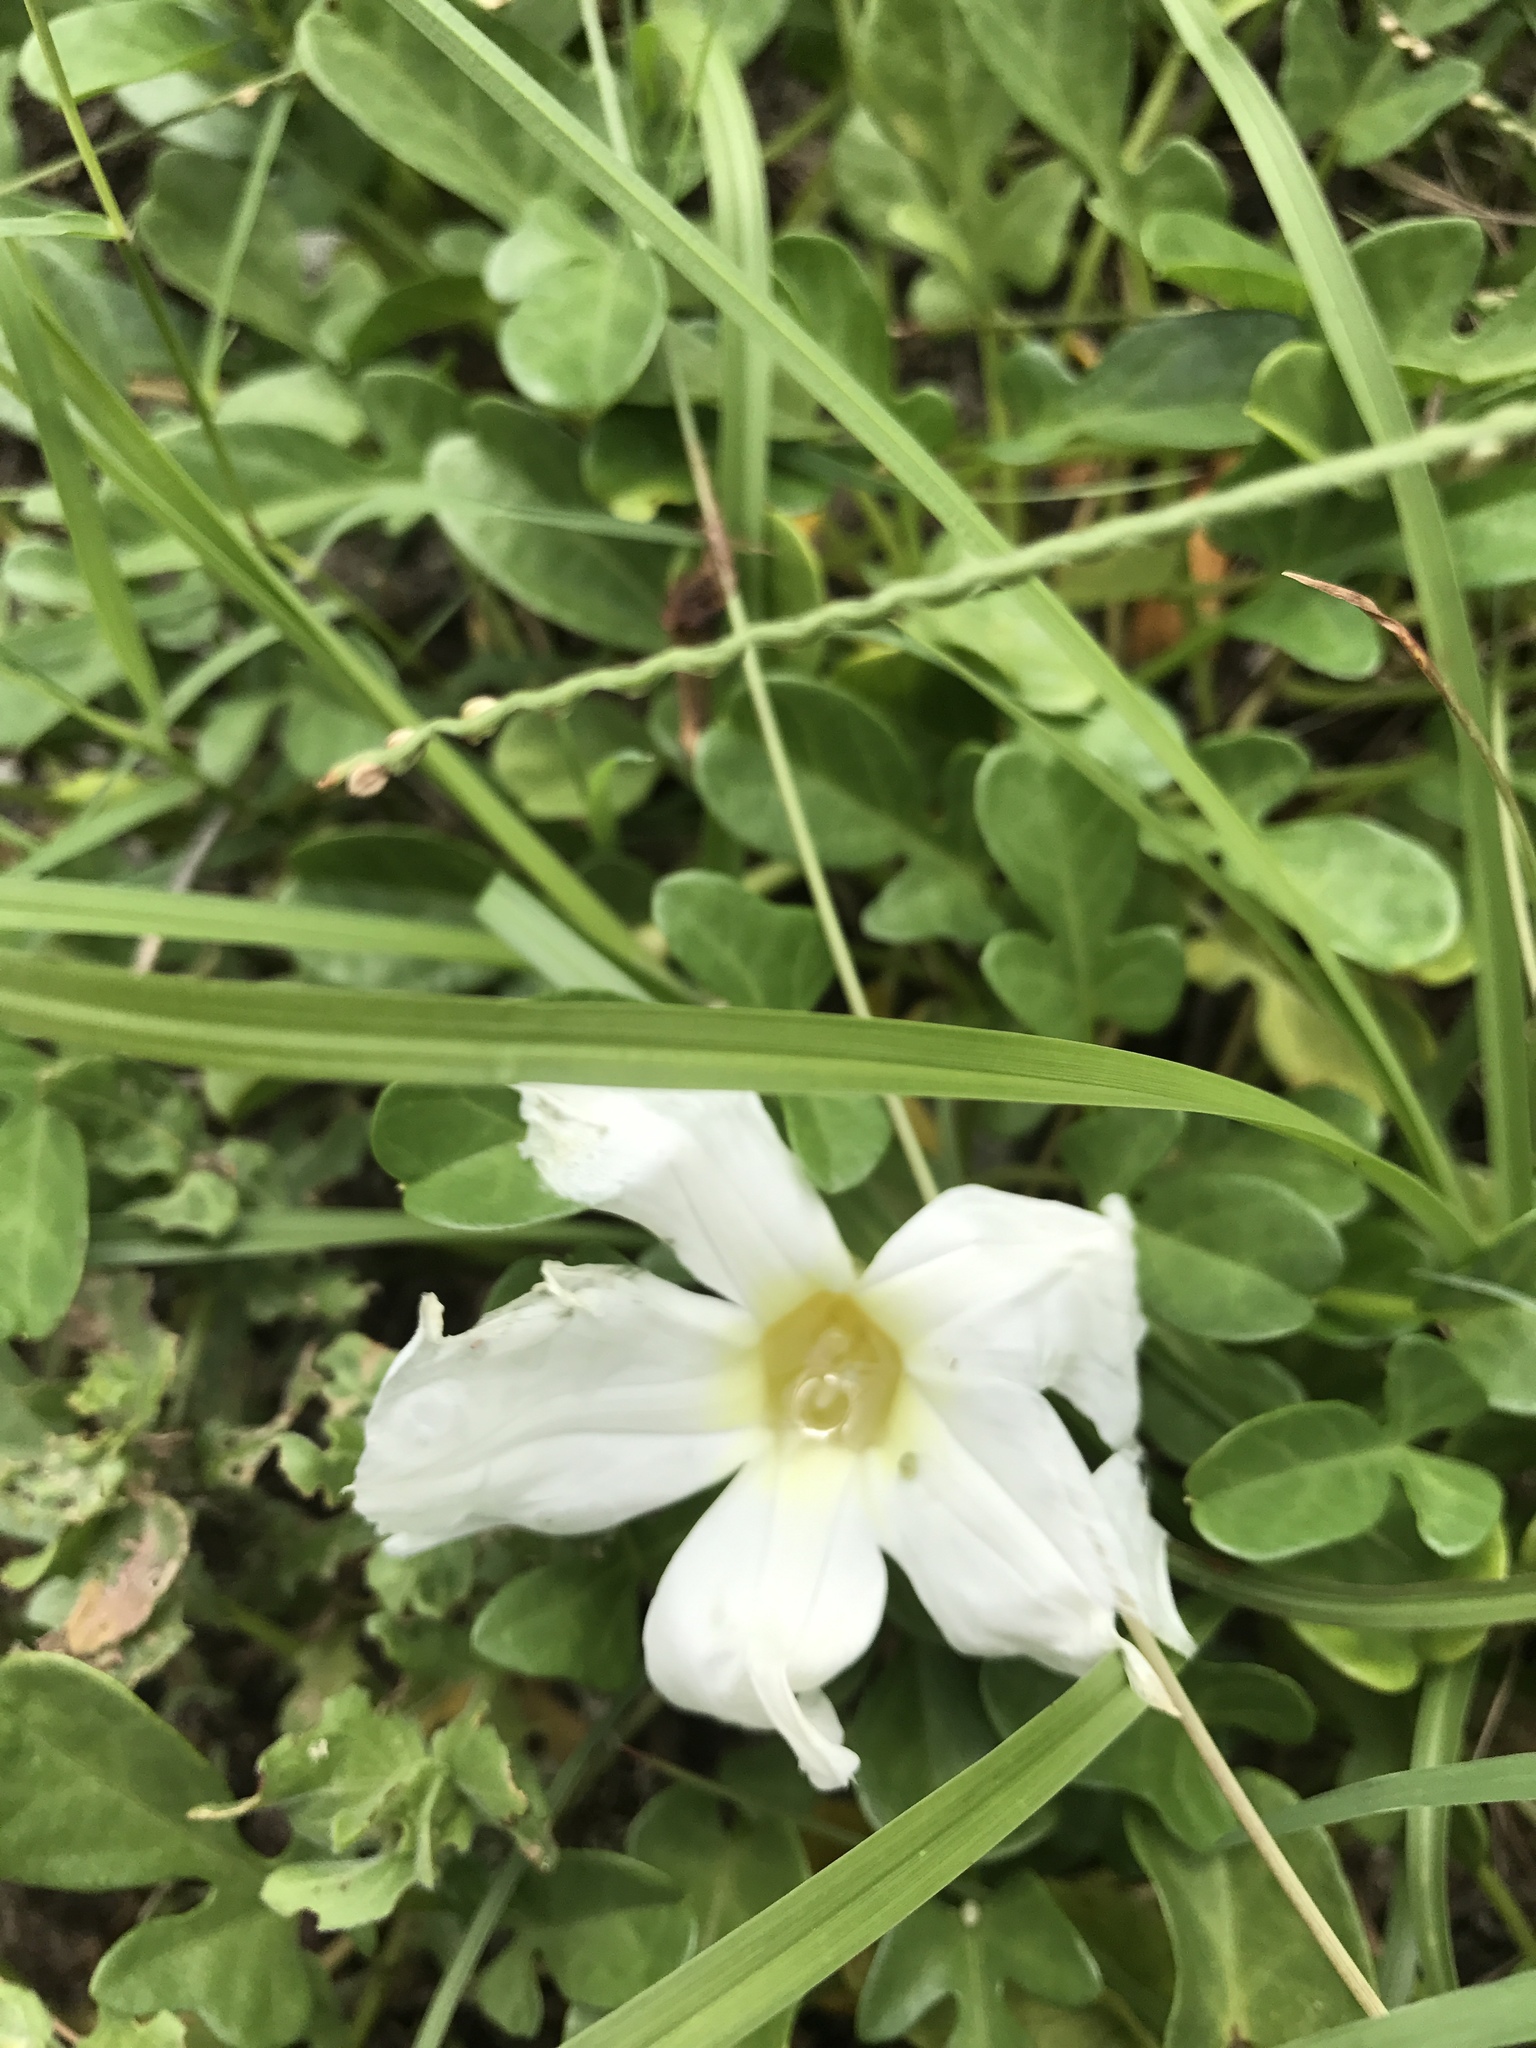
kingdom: Plantae
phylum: Tracheophyta
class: Magnoliopsida
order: Solanales
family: Convolvulaceae
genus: Ipomoea
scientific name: Ipomoea imperati
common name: Fiddle-leaf morning-glory
